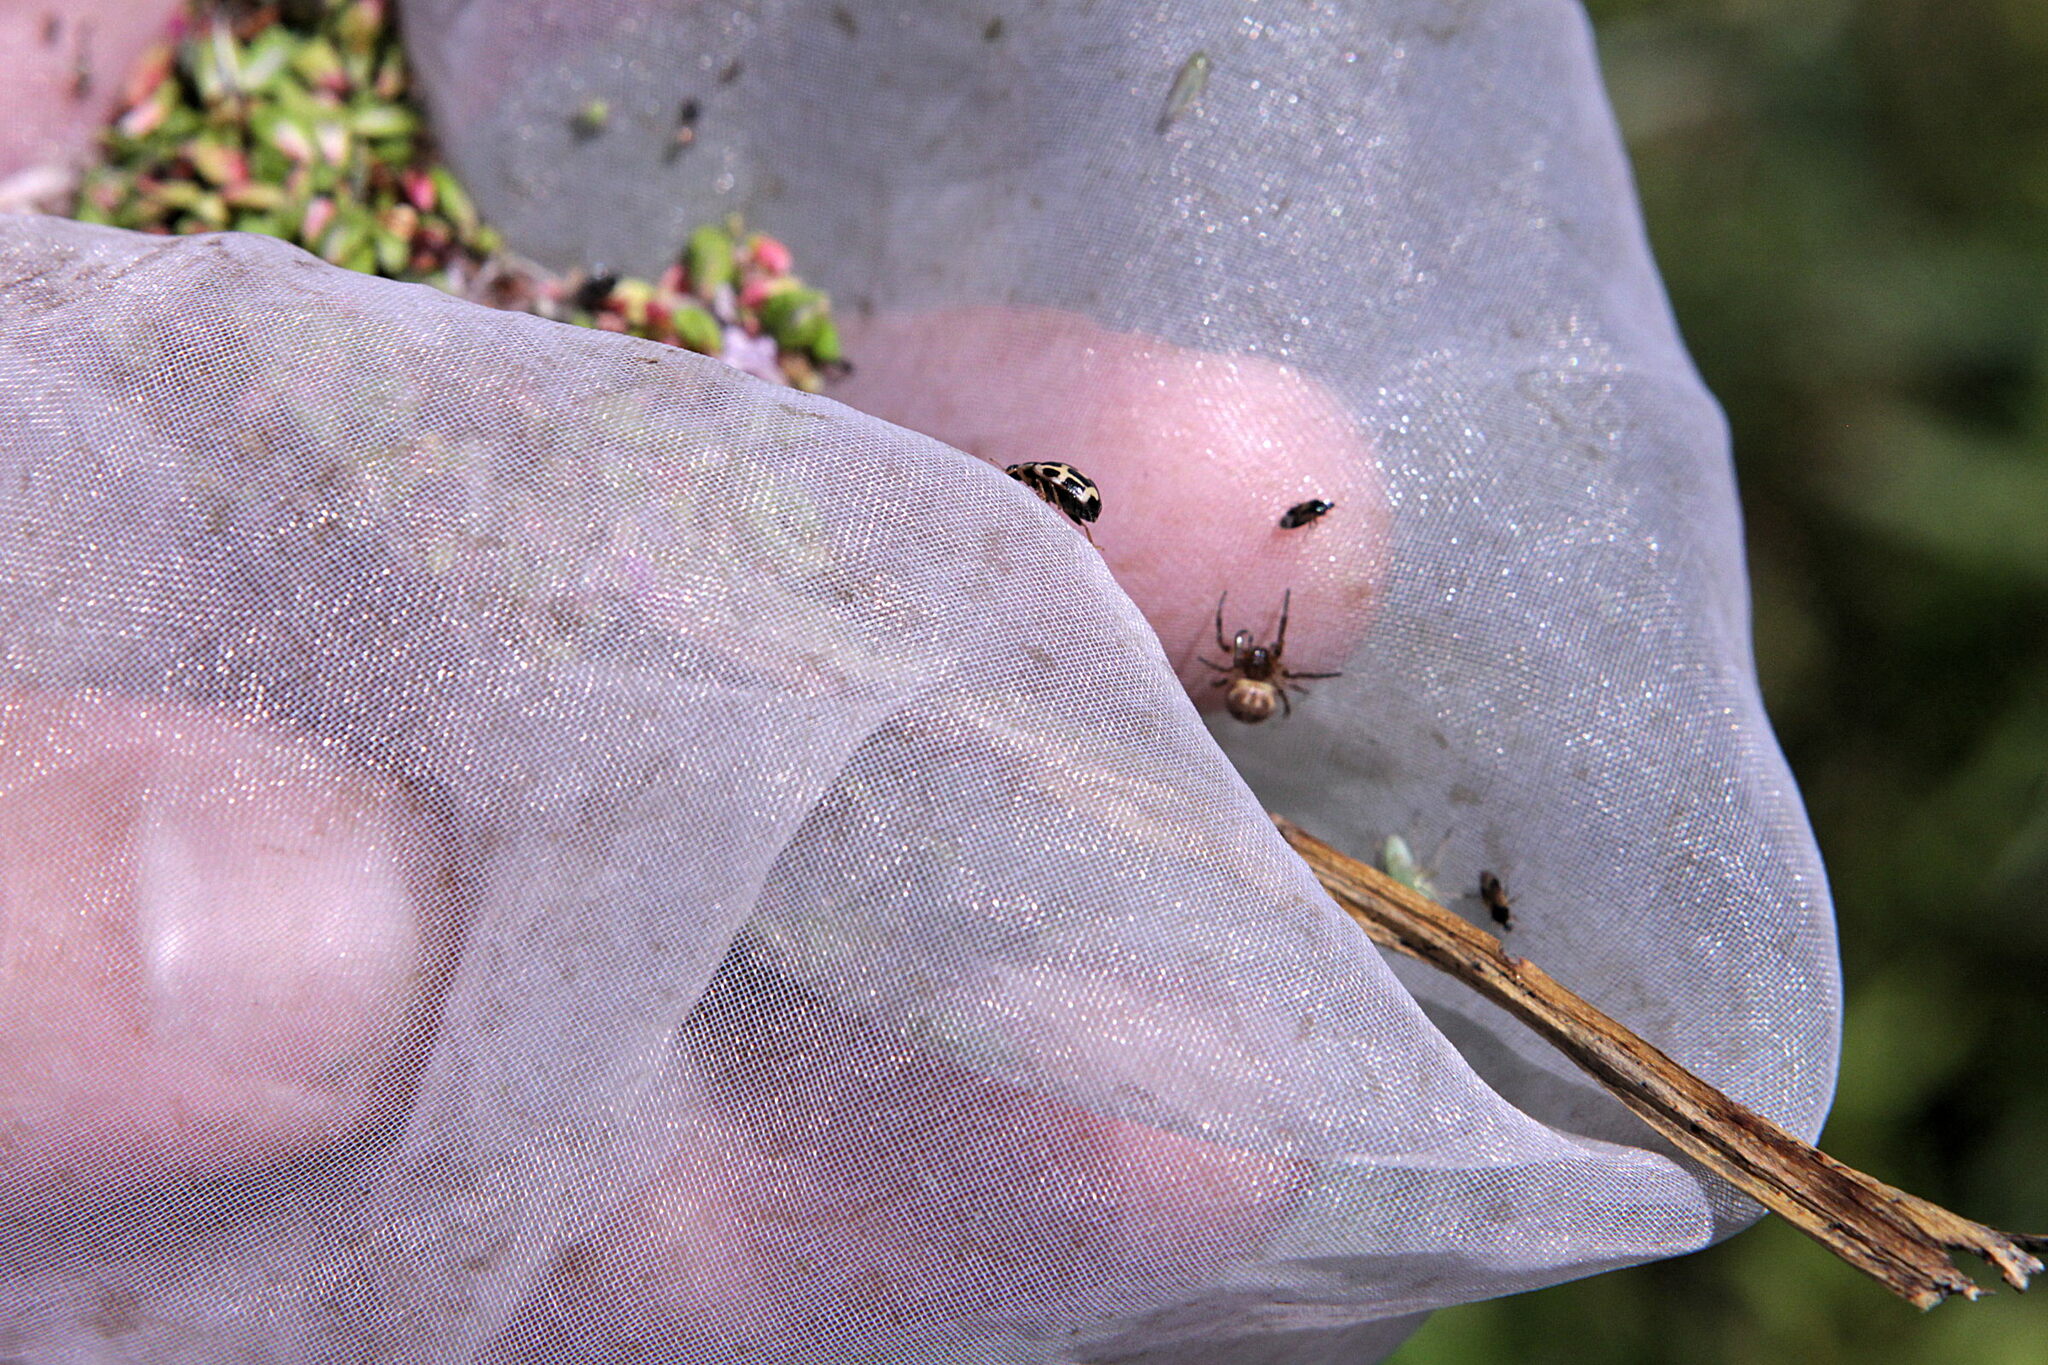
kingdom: Animalia
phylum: Arthropoda
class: Insecta
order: Coleoptera
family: Coccinellidae
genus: Propylaea
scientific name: Propylaea quatuordecimpunctata
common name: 14-spotted ladybird beetle
